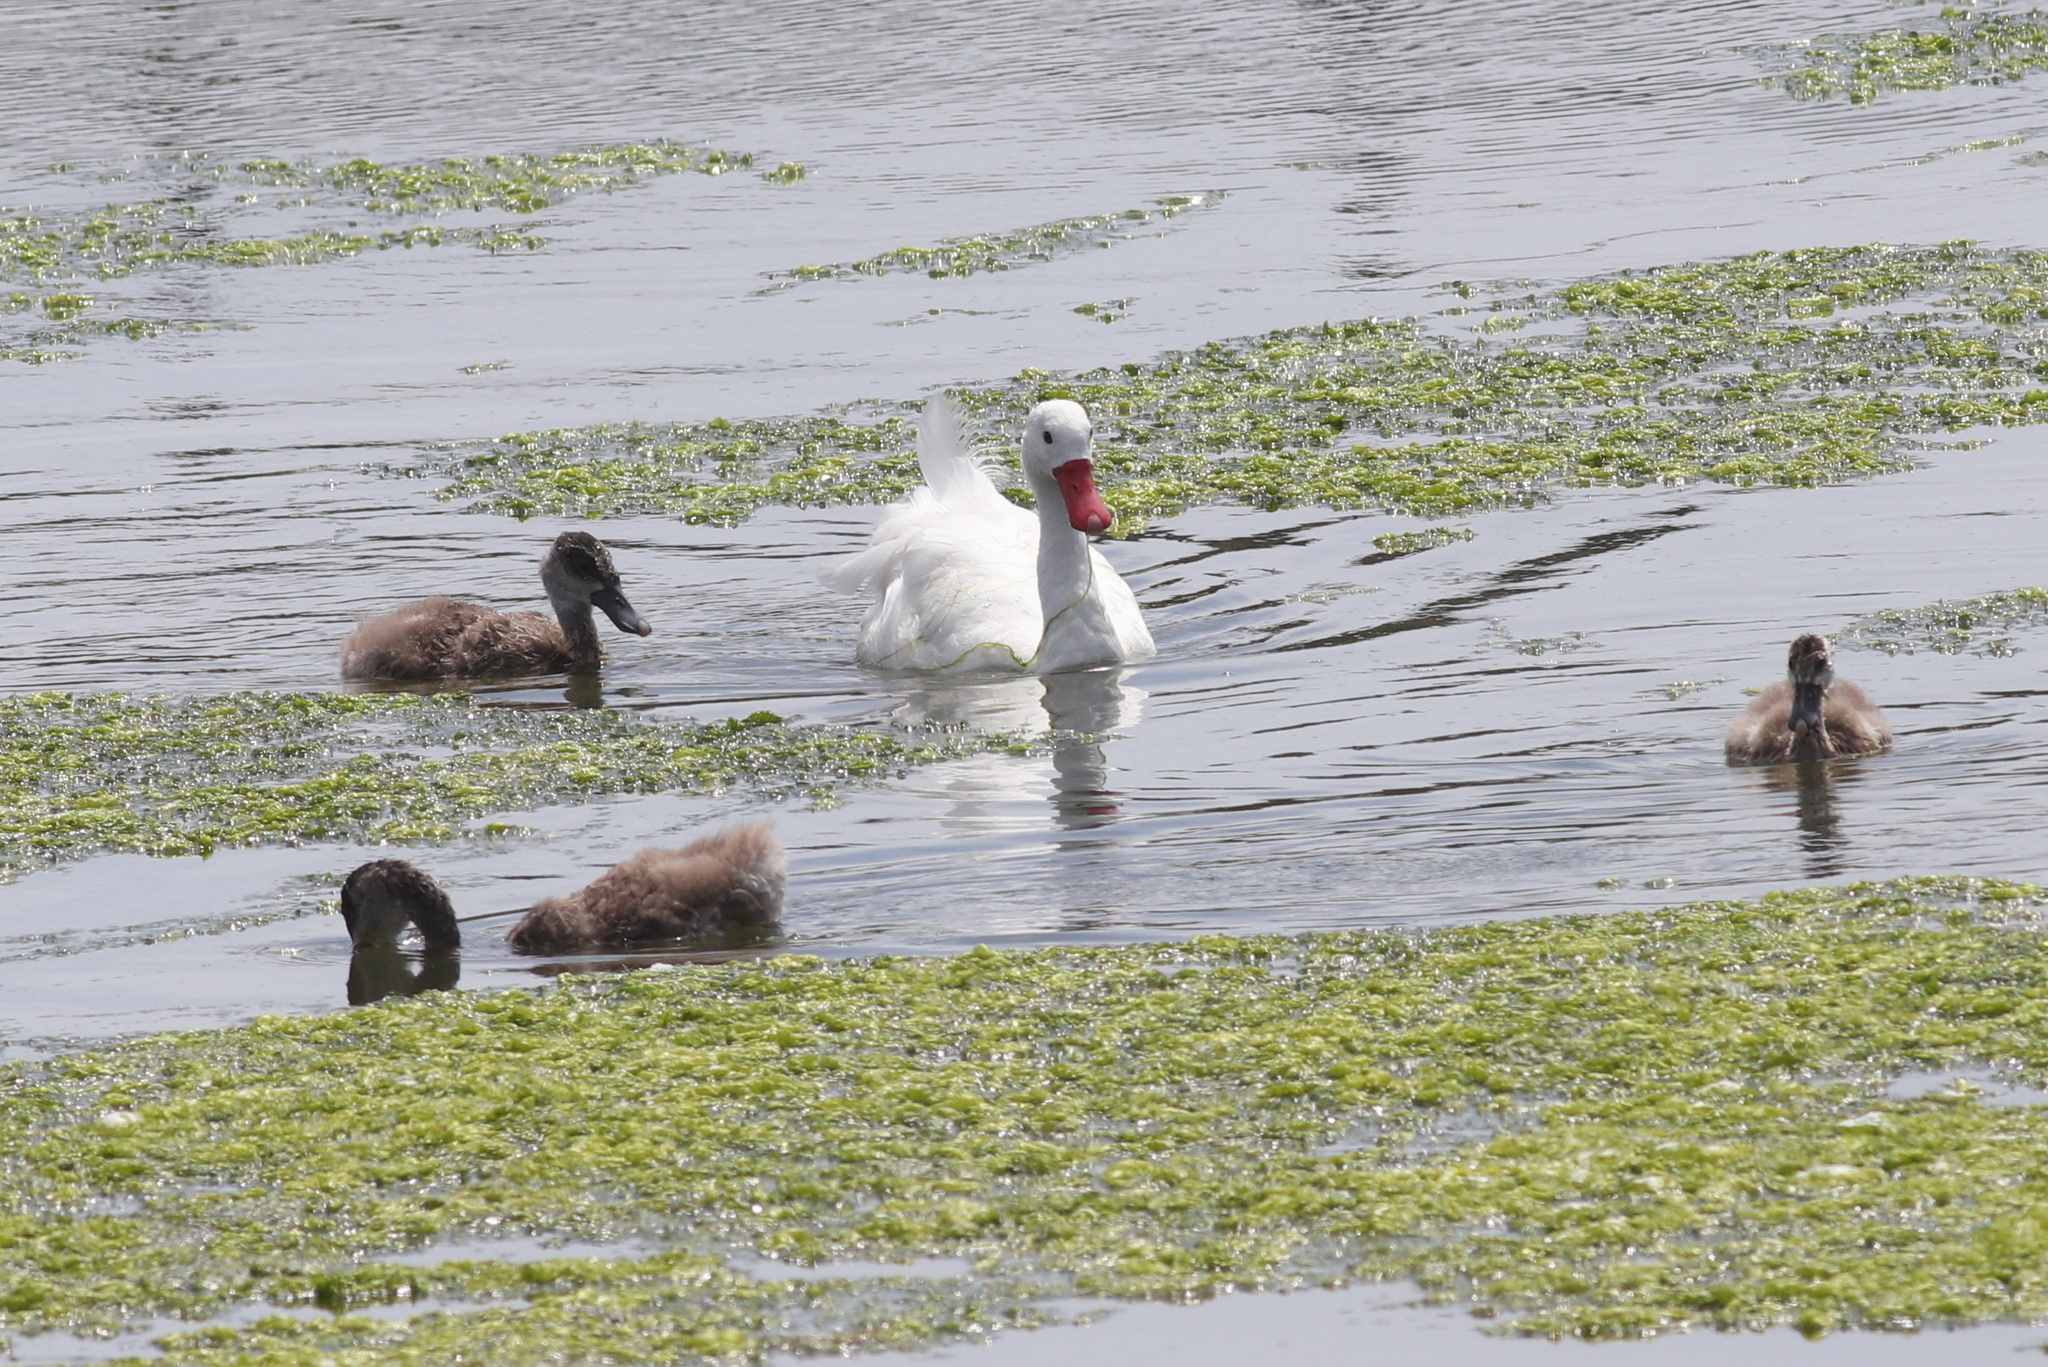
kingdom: Animalia
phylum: Chordata
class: Aves
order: Anseriformes
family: Anatidae
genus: Coscoroba
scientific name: Coscoroba coscoroba
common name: Coscoroba swan
